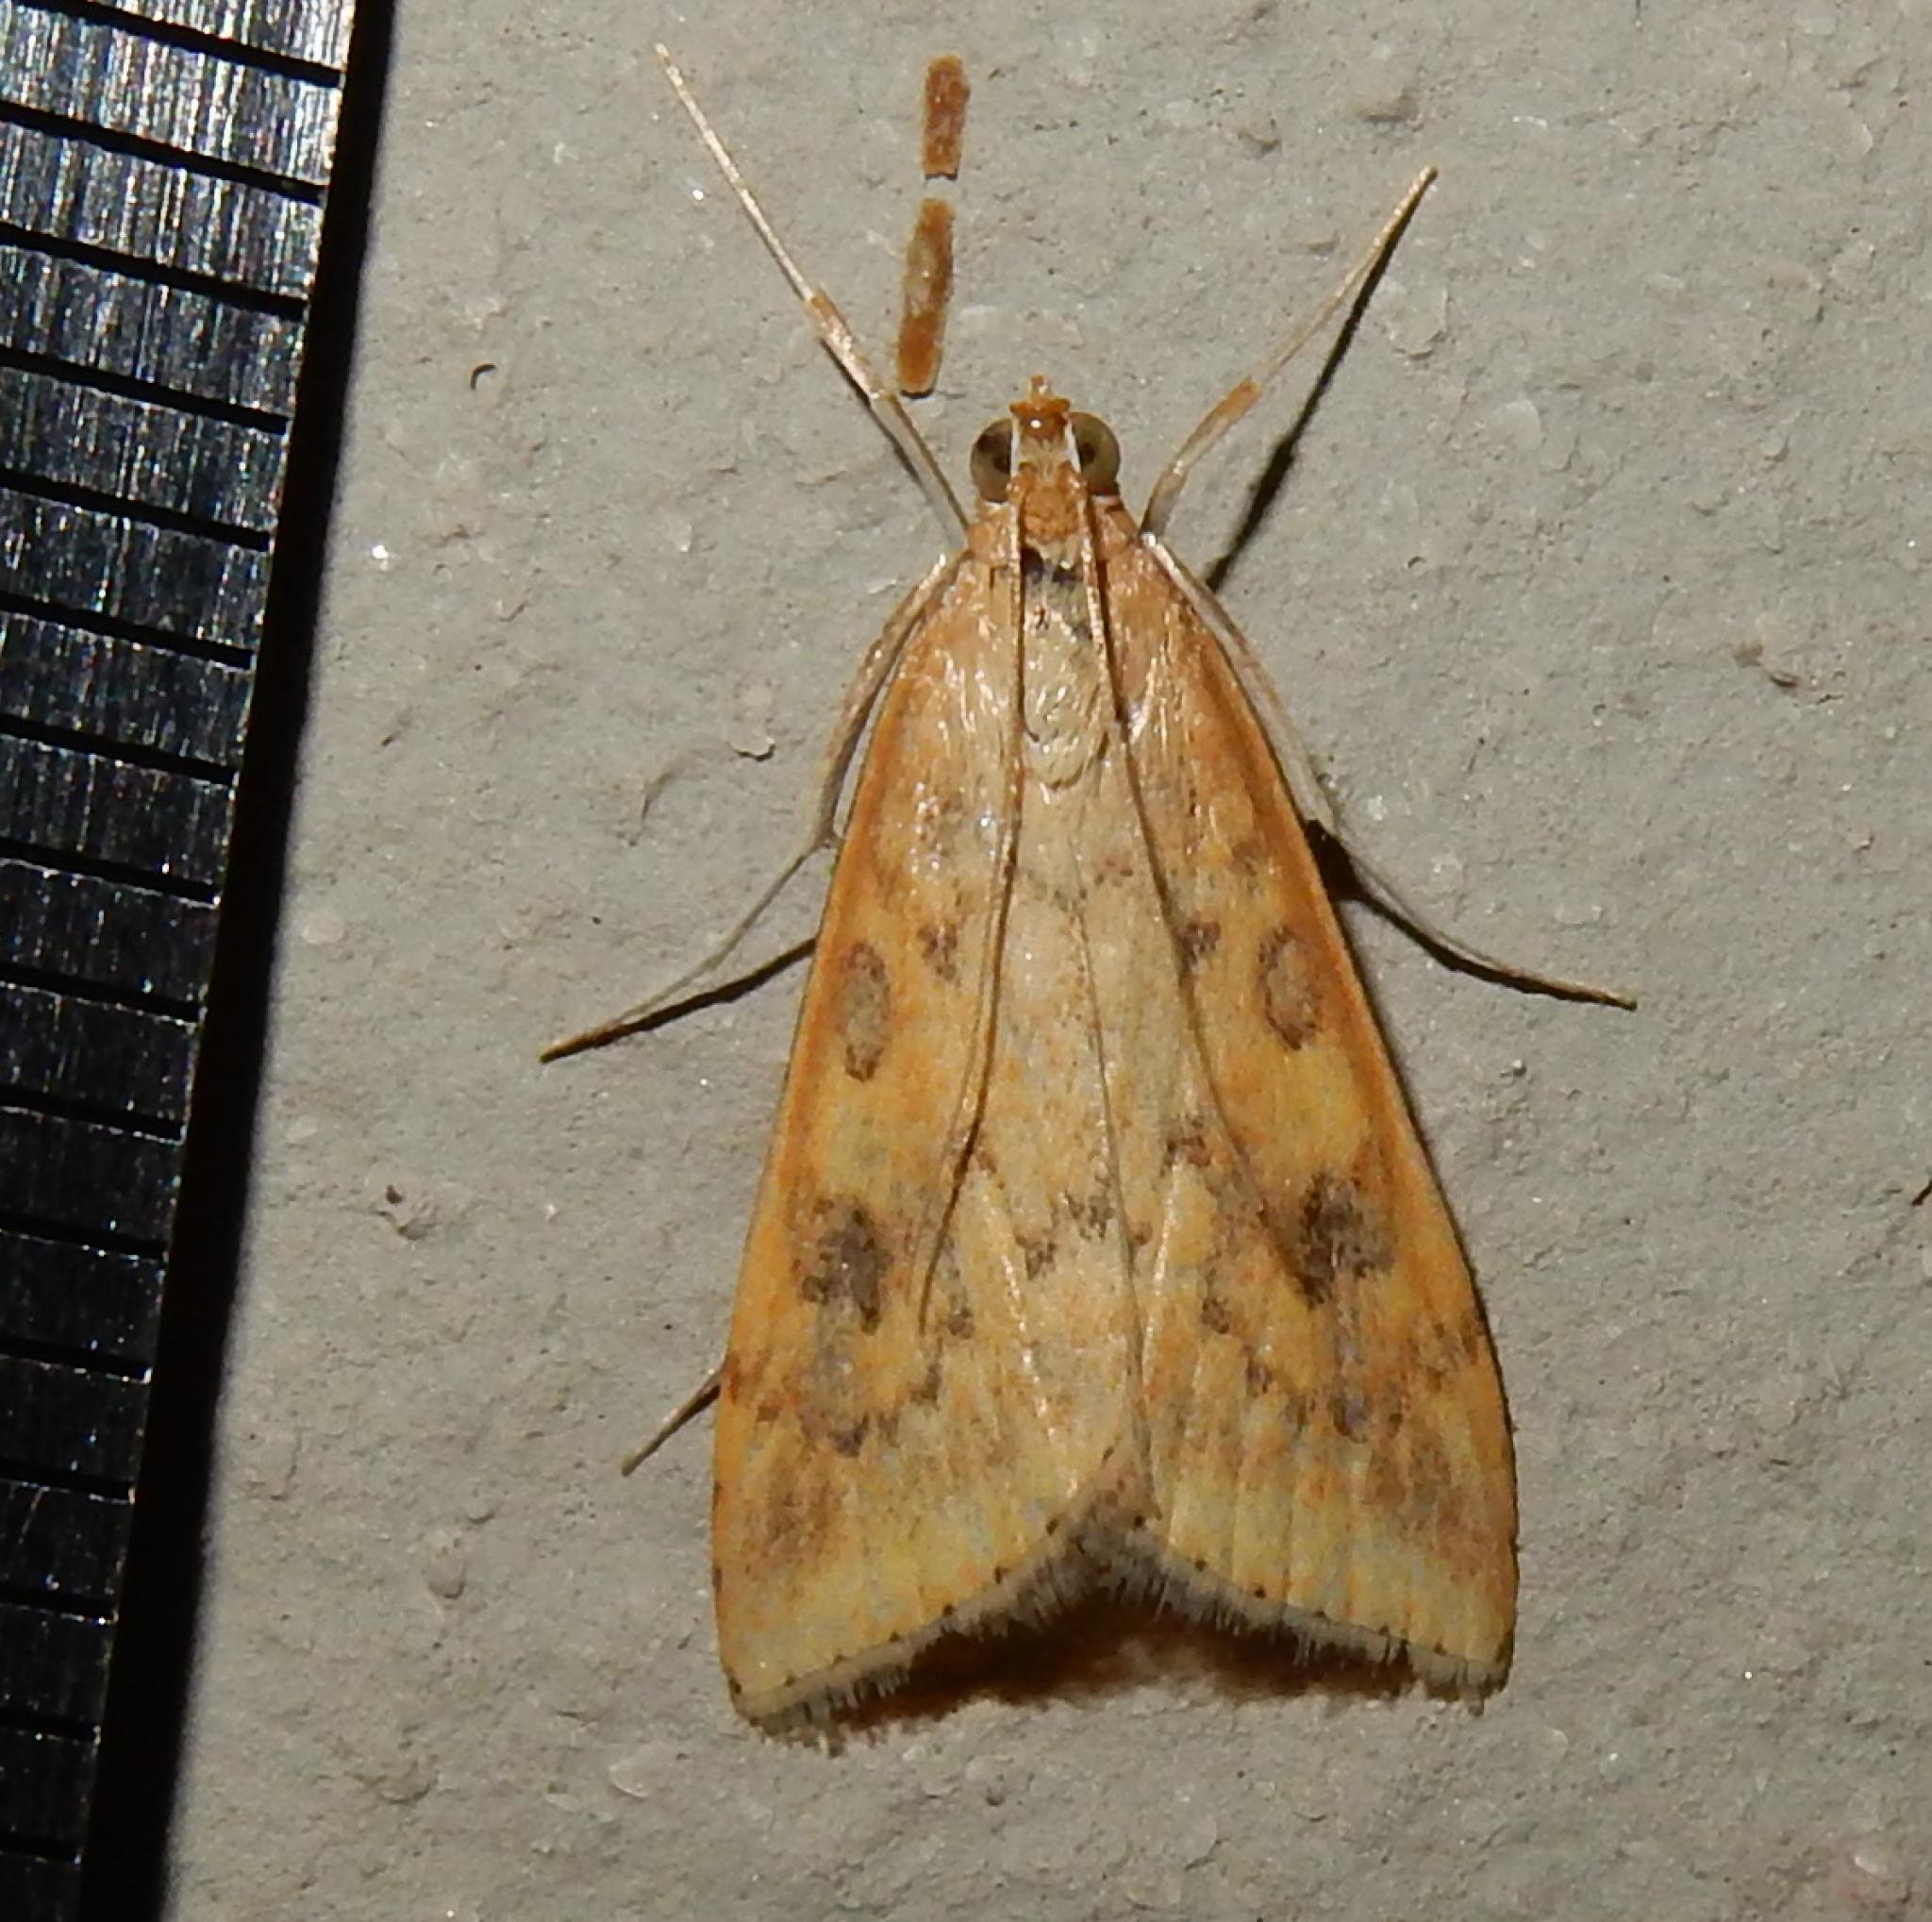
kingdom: Animalia
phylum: Arthropoda
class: Insecta
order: Lepidoptera
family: Crambidae
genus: Udea
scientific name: Udea ferrugalis
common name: Rusty dot
